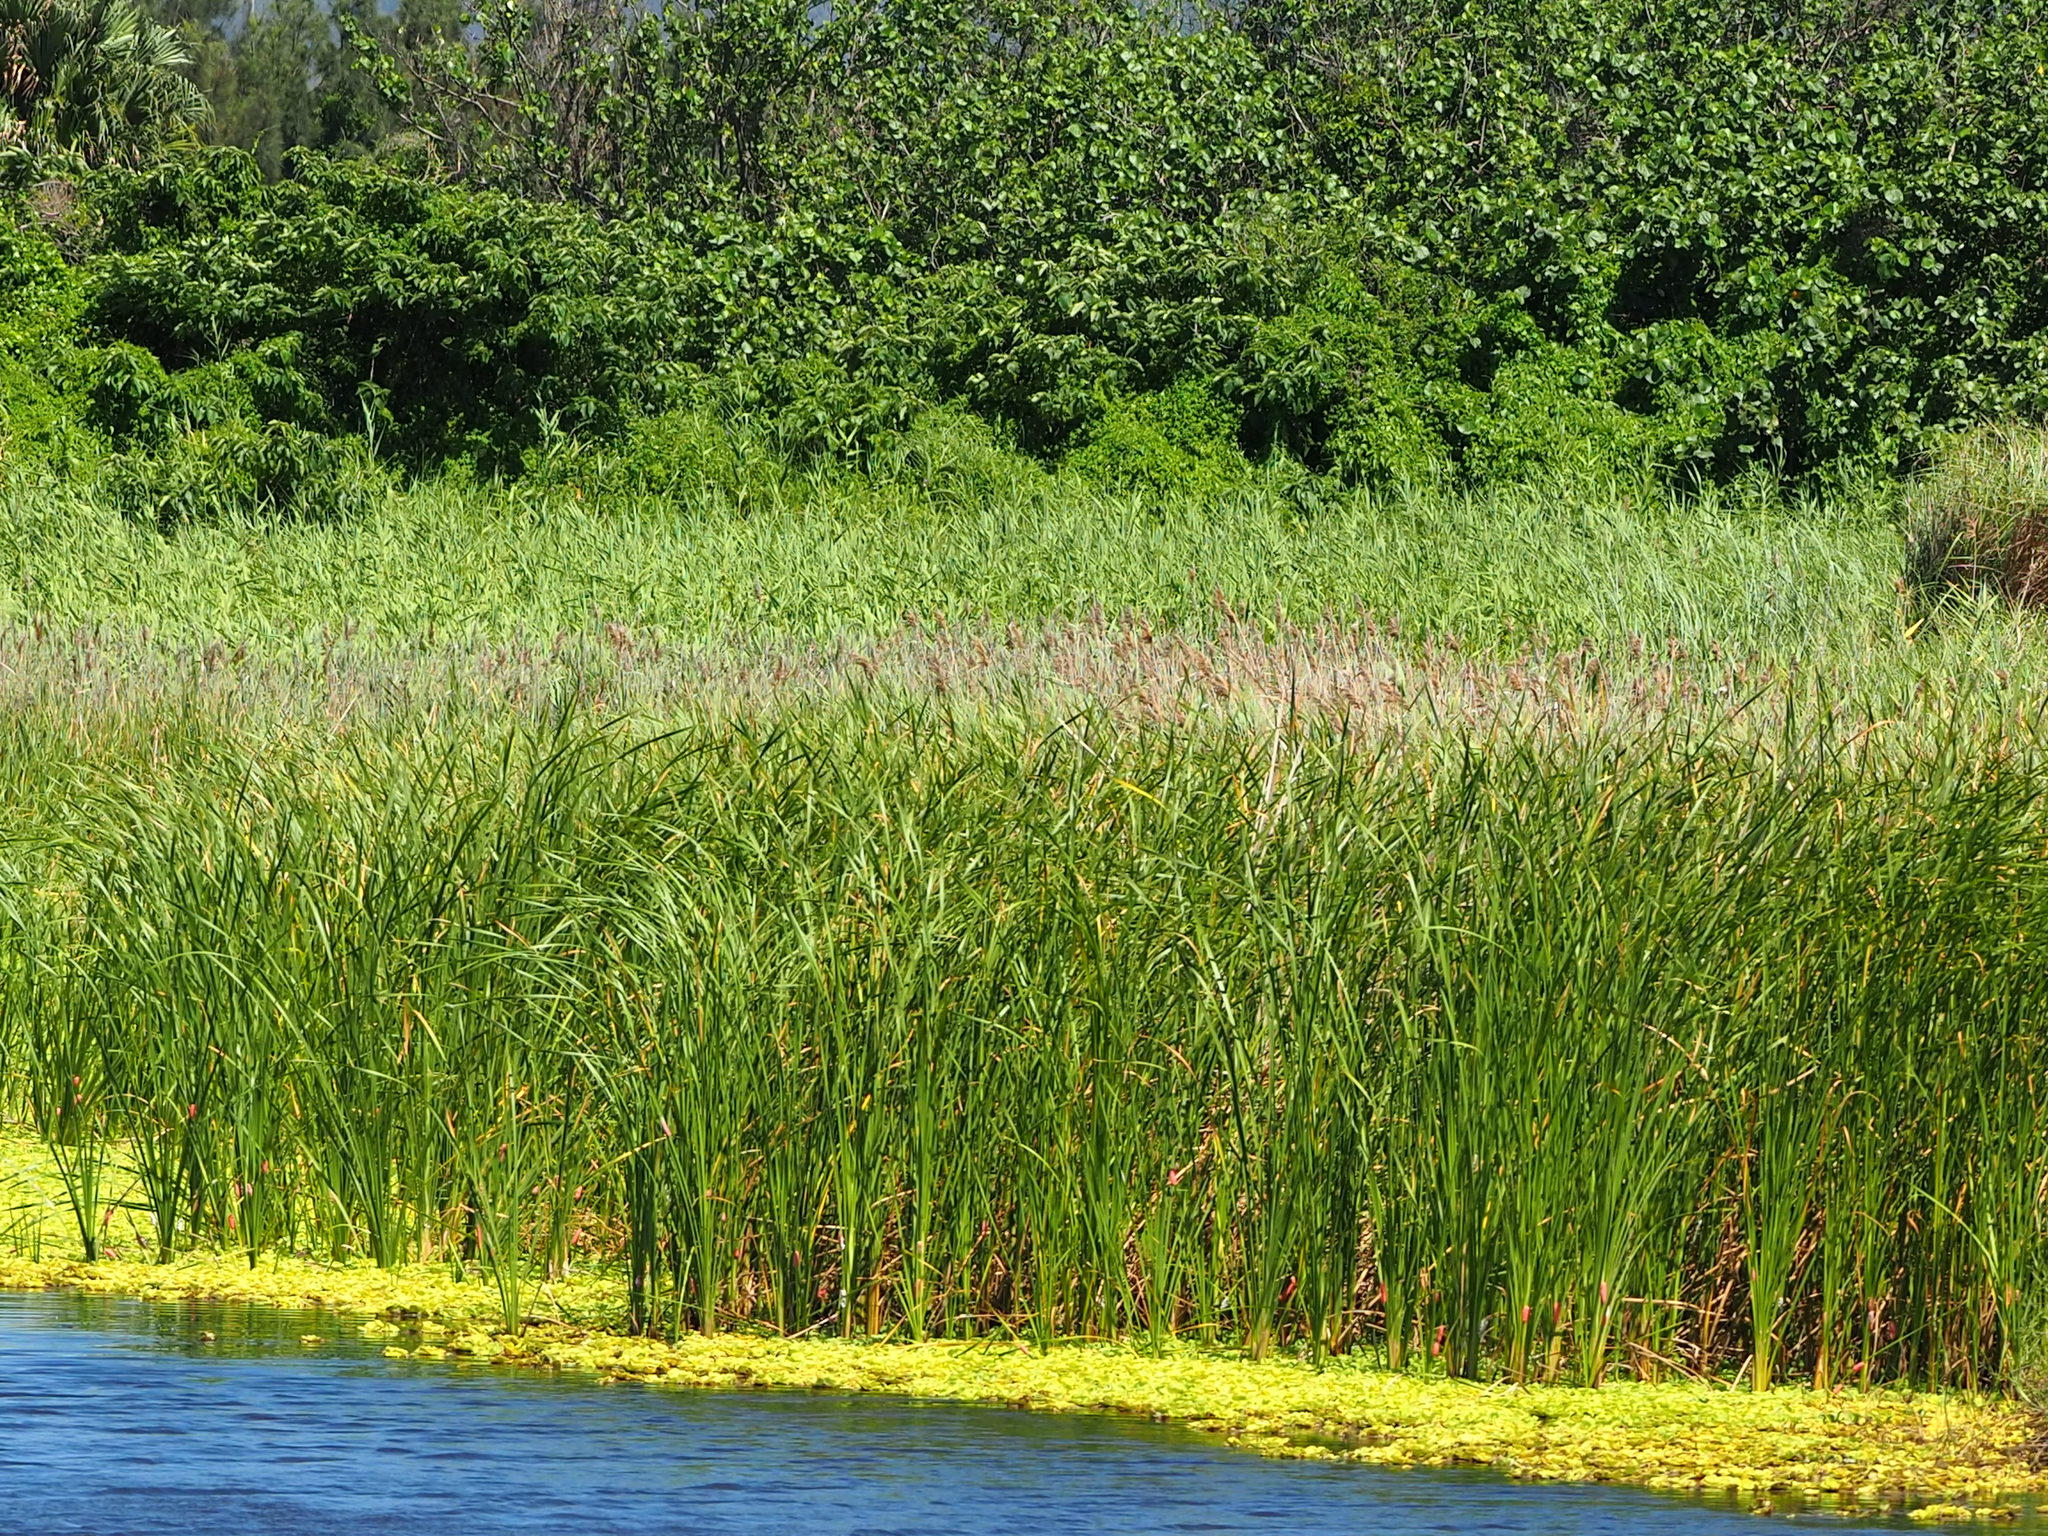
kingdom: Plantae
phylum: Tracheophyta
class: Liliopsida
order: Poales
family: Typhaceae
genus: Typha
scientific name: Typha orientalis
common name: Bullrush
